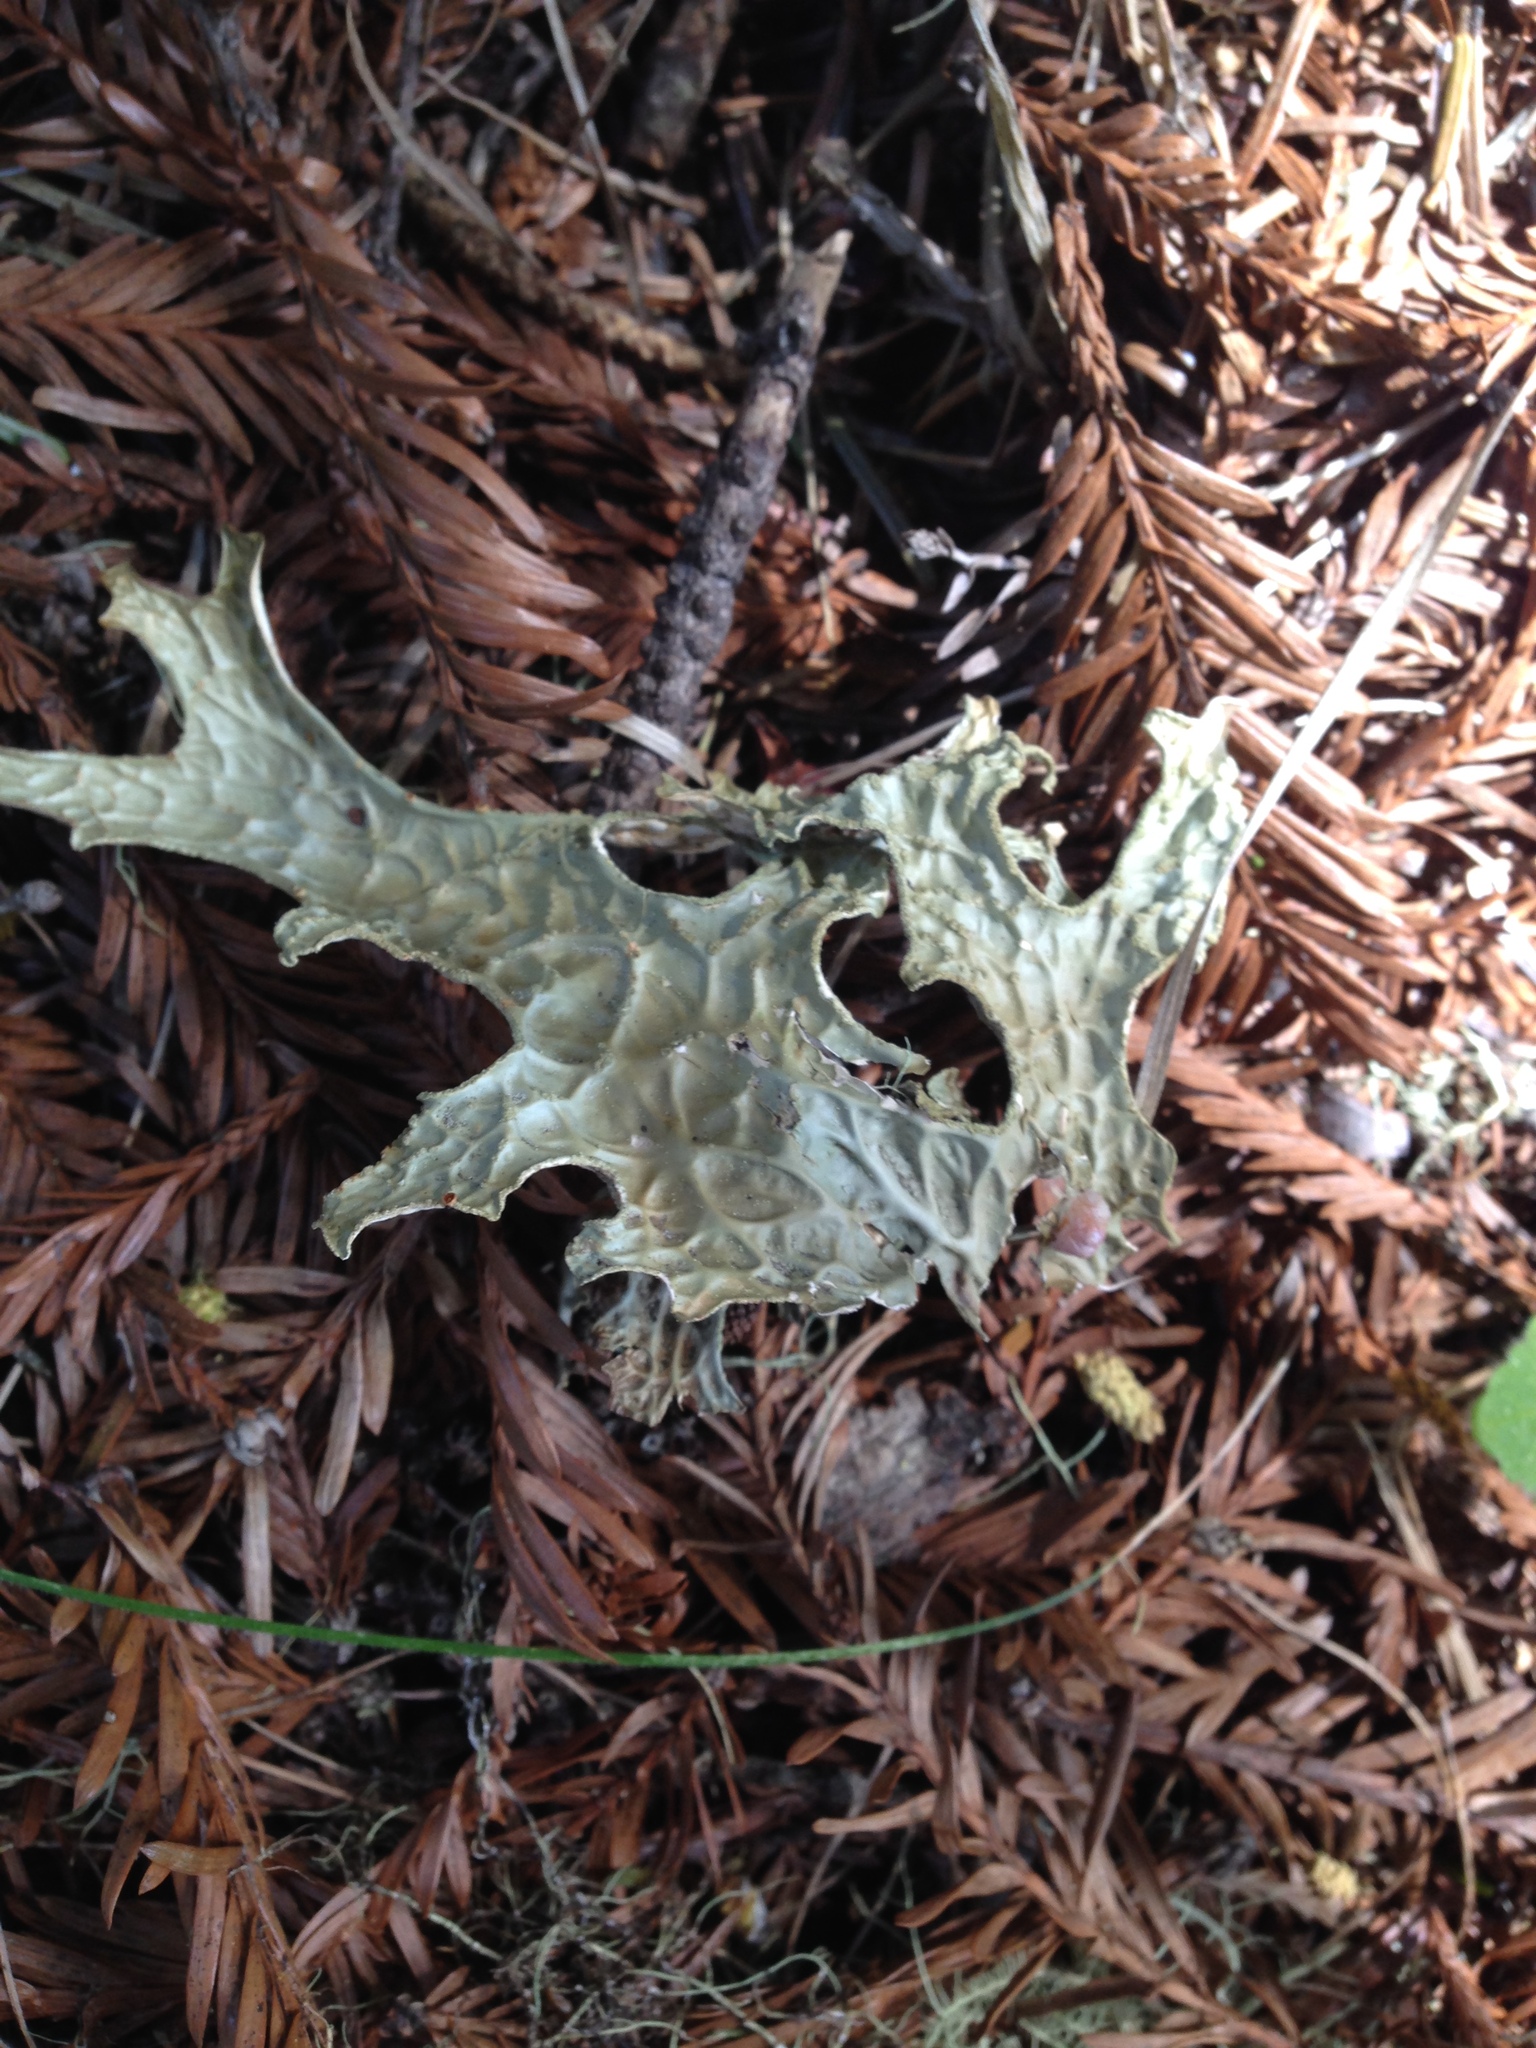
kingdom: Fungi
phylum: Ascomycota
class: Lecanoromycetes
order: Peltigerales
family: Lobariaceae
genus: Lobaria
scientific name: Lobaria pulmonaria
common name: Lungwort
